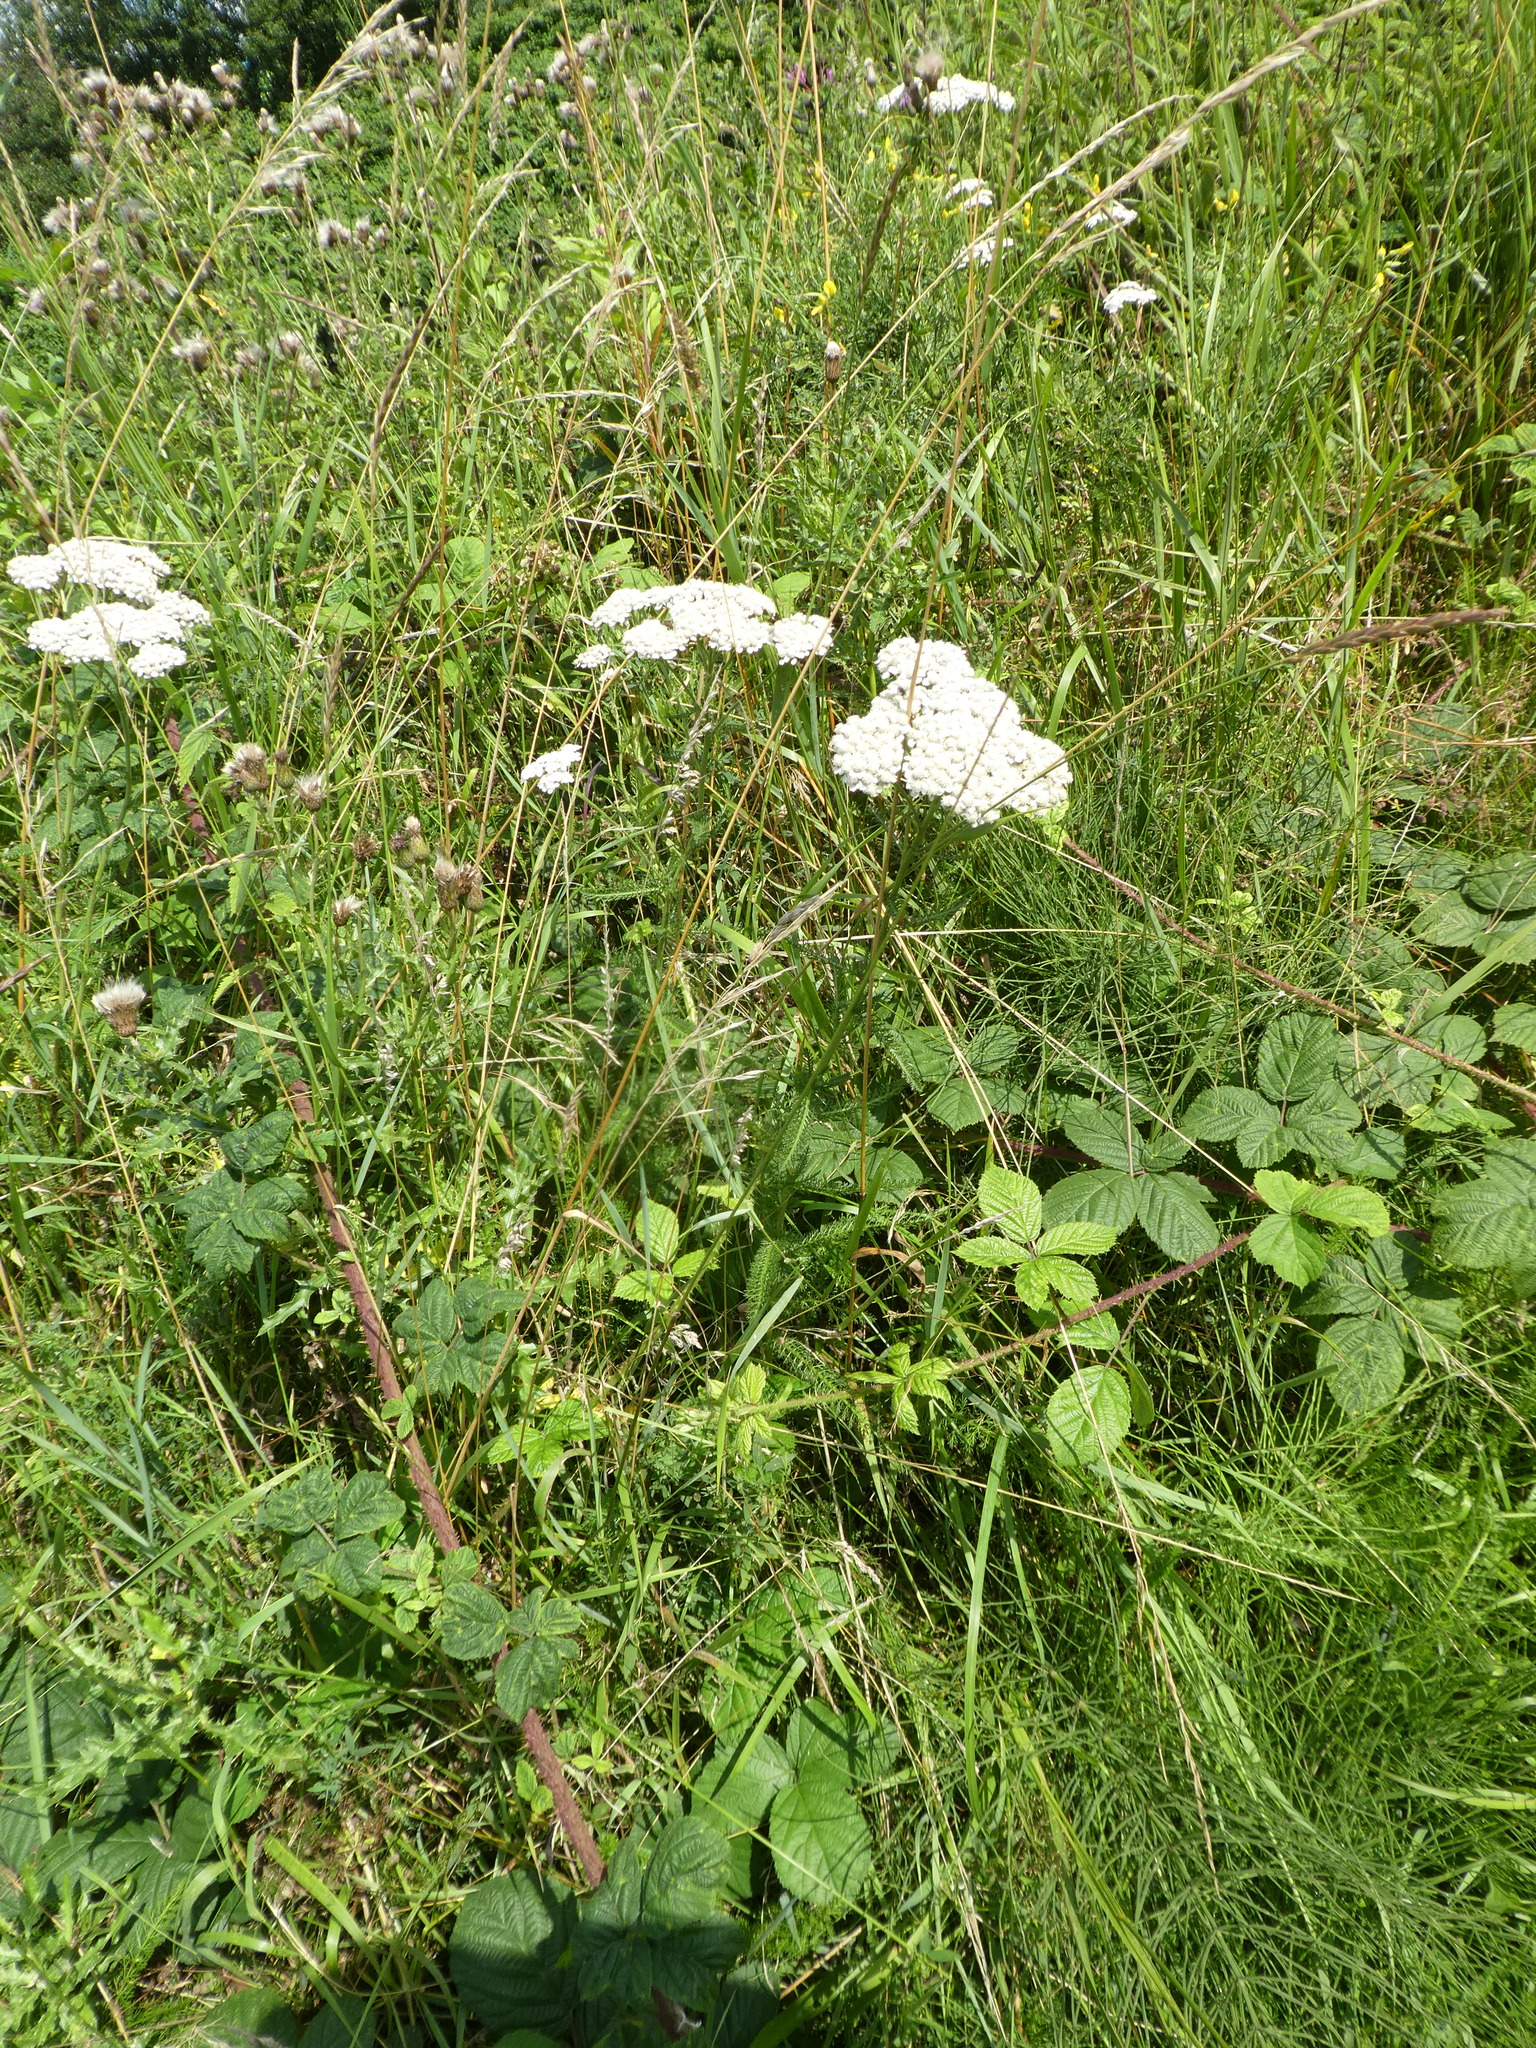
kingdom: Plantae
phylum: Tracheophyta
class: Magnoliopsida
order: Asterales
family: Asteraceae
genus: Achillea
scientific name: Achillea millefolium
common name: Yarrow
